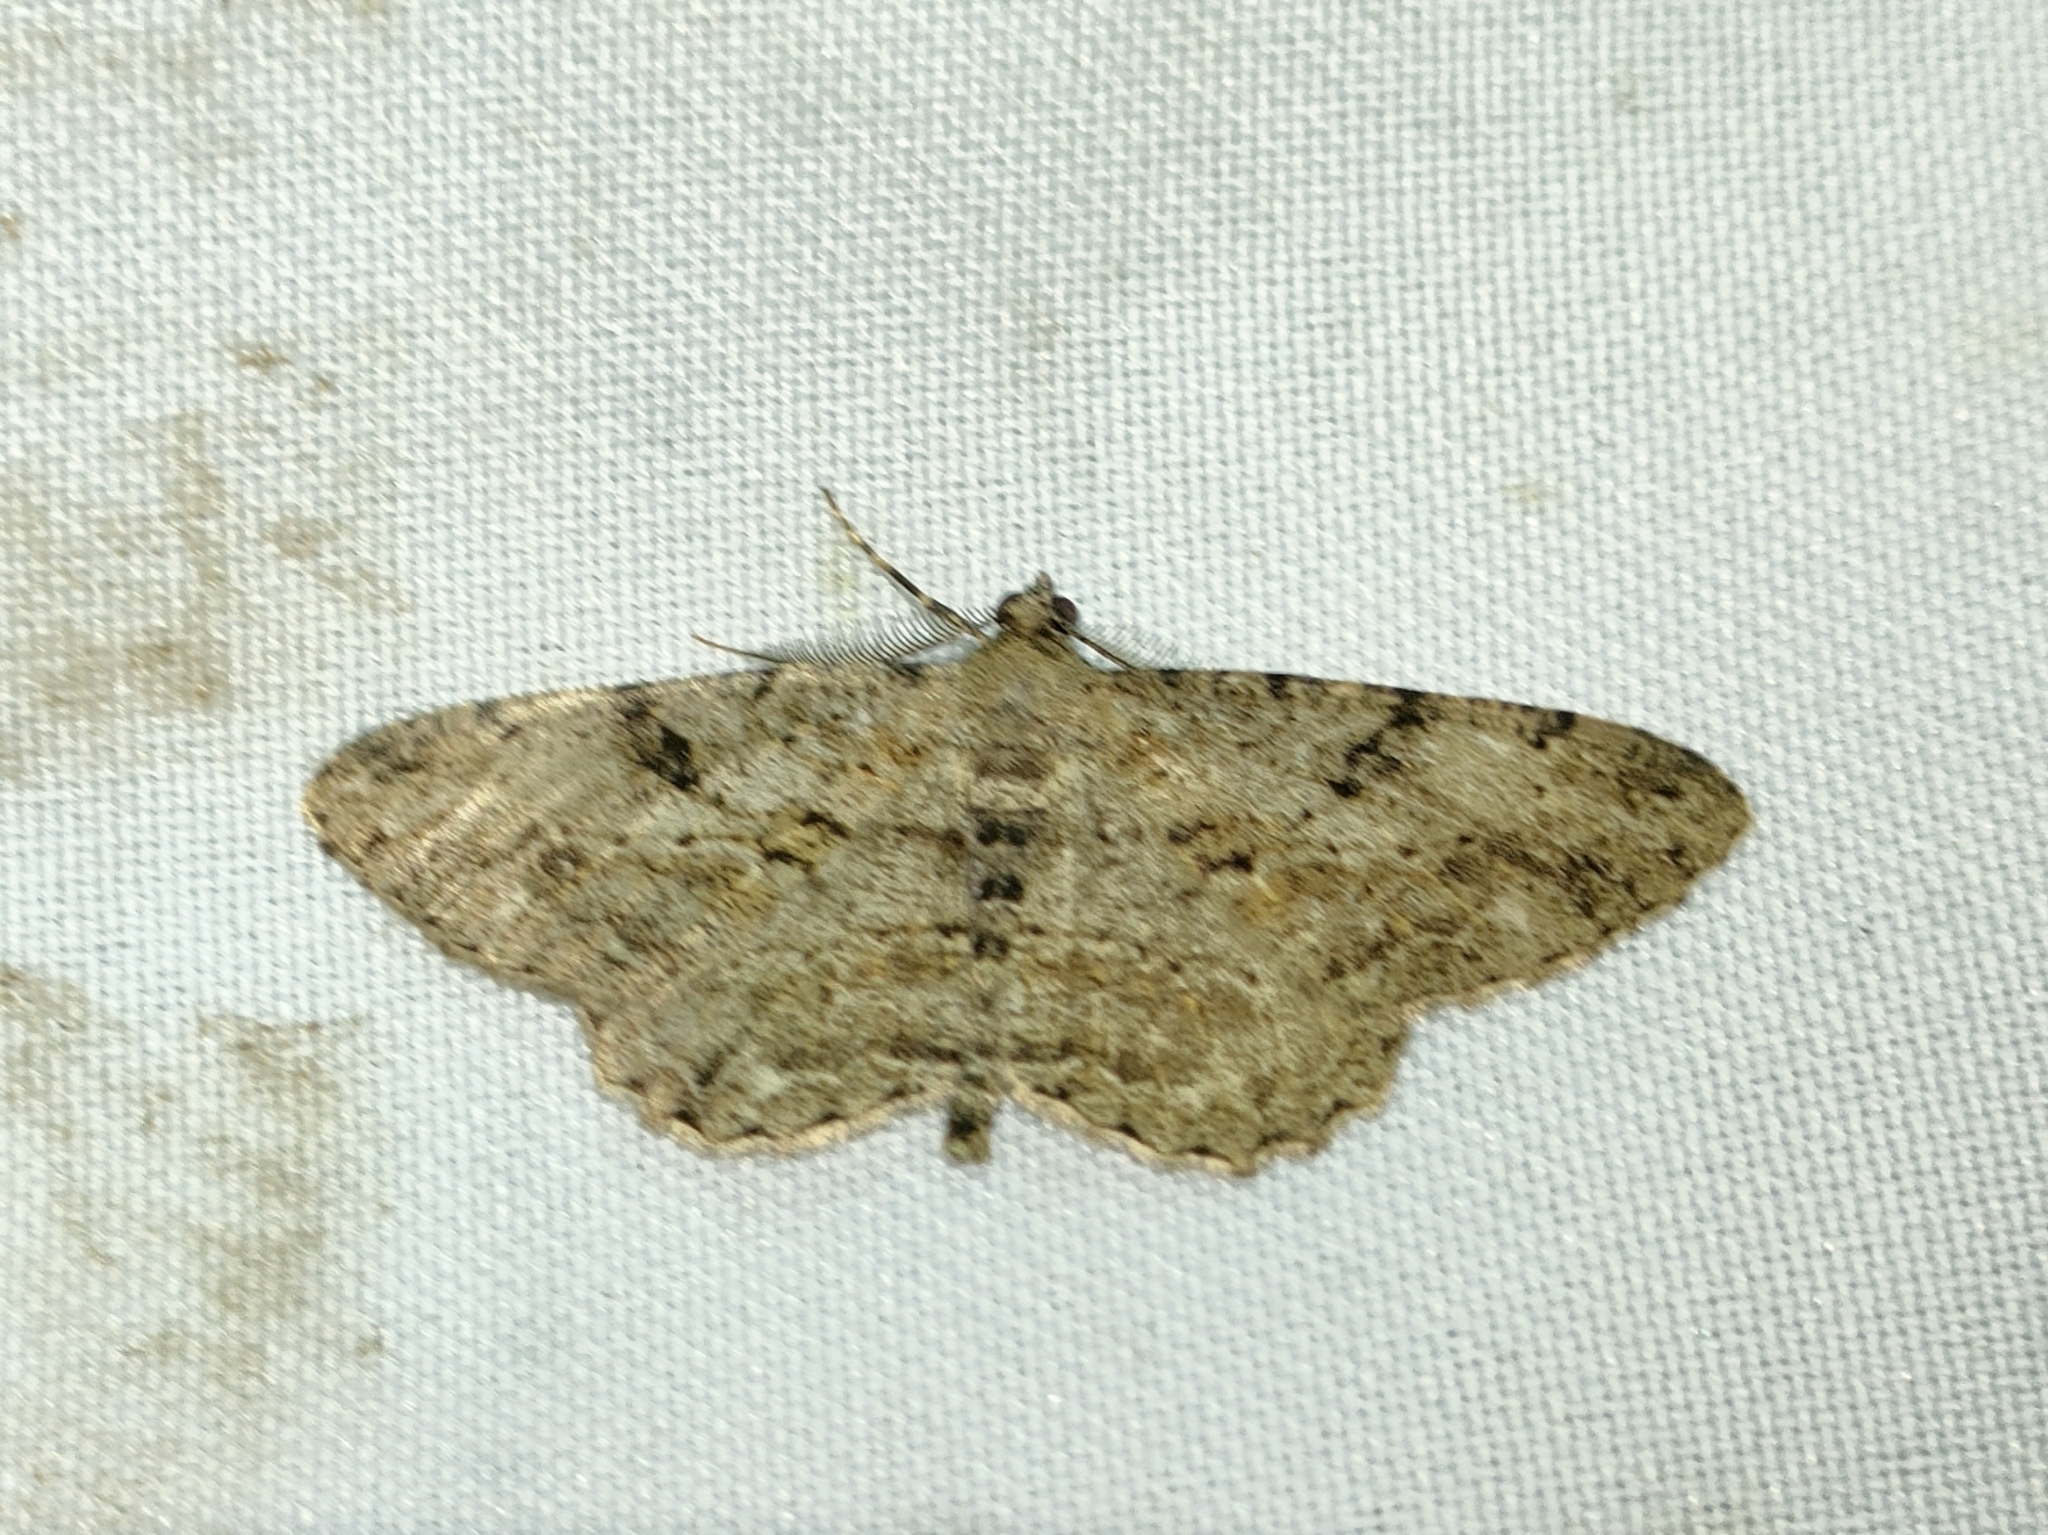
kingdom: Animalia
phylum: Arthropoda
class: Insecta
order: Lepidoptera
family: Geometridae
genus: Peribatodes
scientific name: Peribatodes rhomboidaria
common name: Willow beauty
